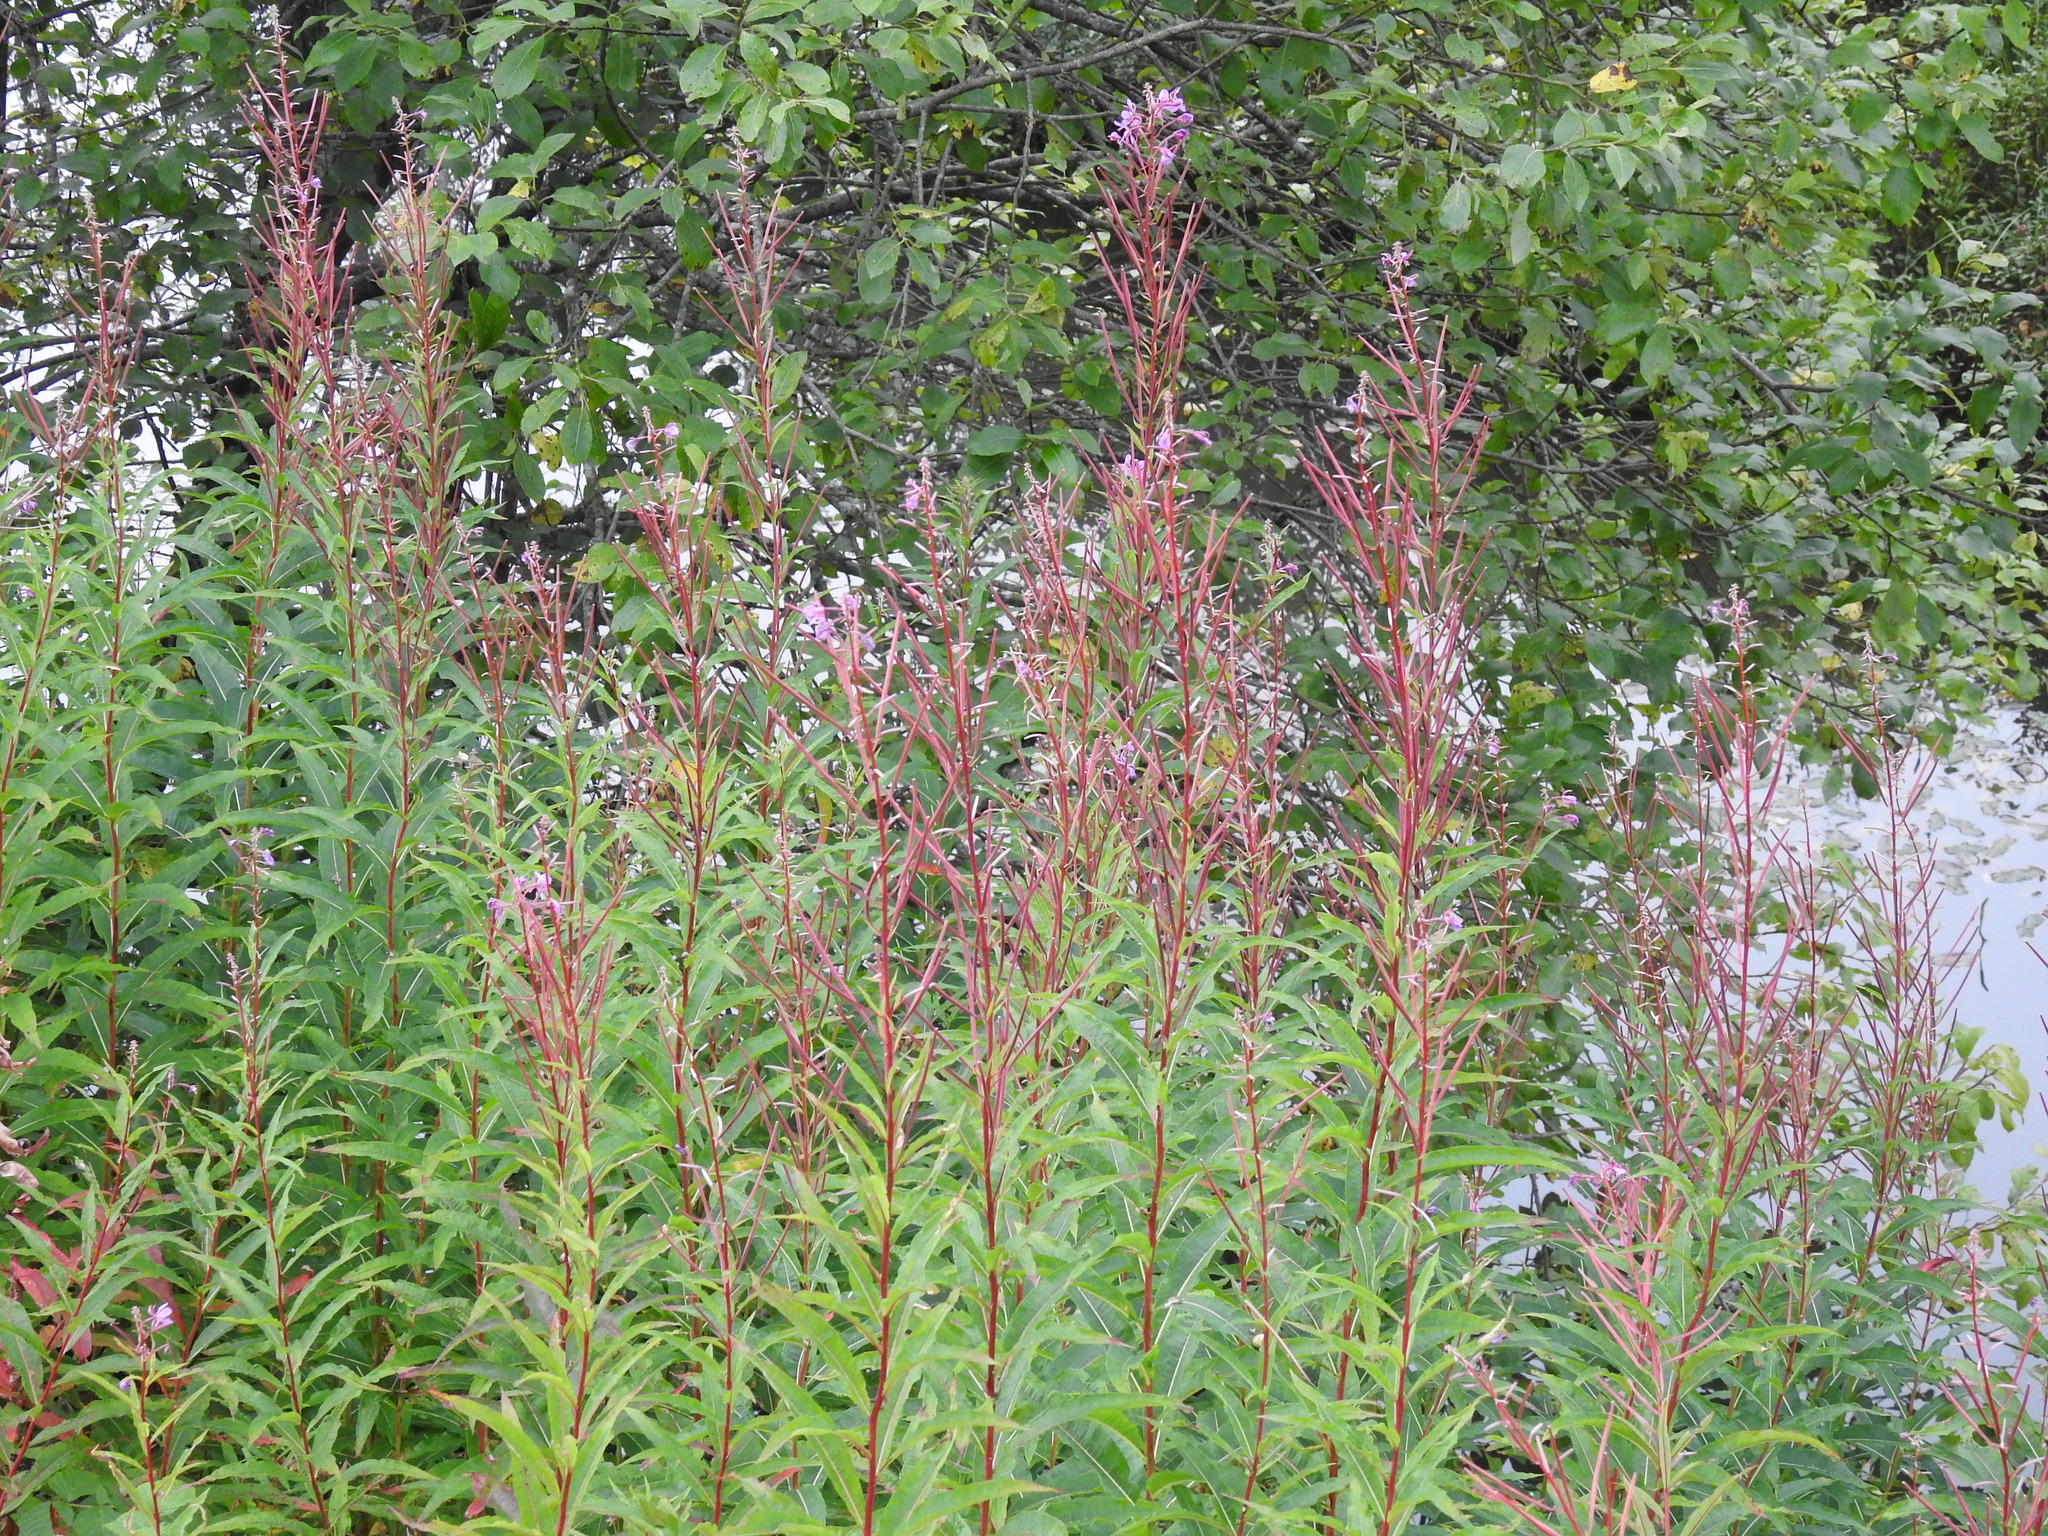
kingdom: Plantae
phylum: Tracheophyta
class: Magnoliopsida
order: Myrtales
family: Onagraceae
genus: Chamaenerion
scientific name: Chamaenerion angustifolium
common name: Fireweed
